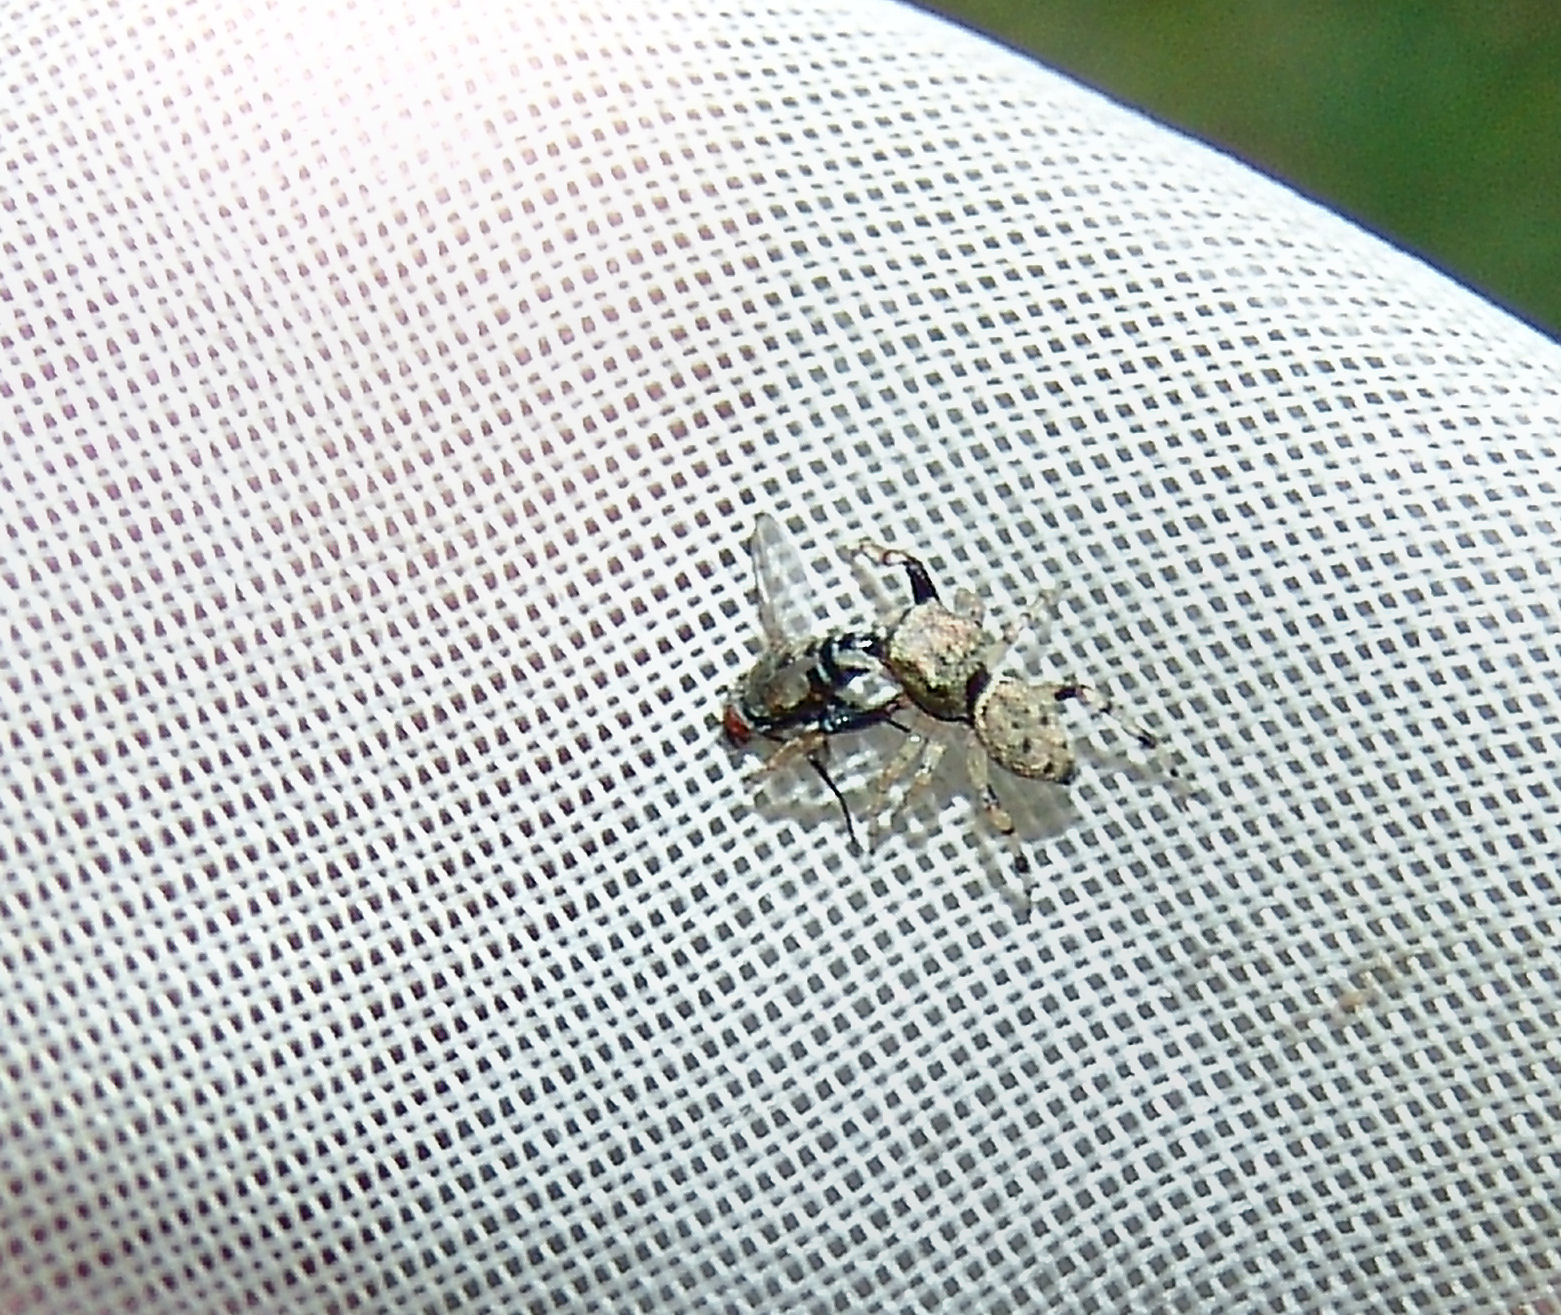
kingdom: Animalia
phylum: Arthropoda
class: Arachnida
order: Araneae
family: Salticidae
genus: Zygoballus
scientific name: Zygoballus rufipes
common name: Jumping spiders
